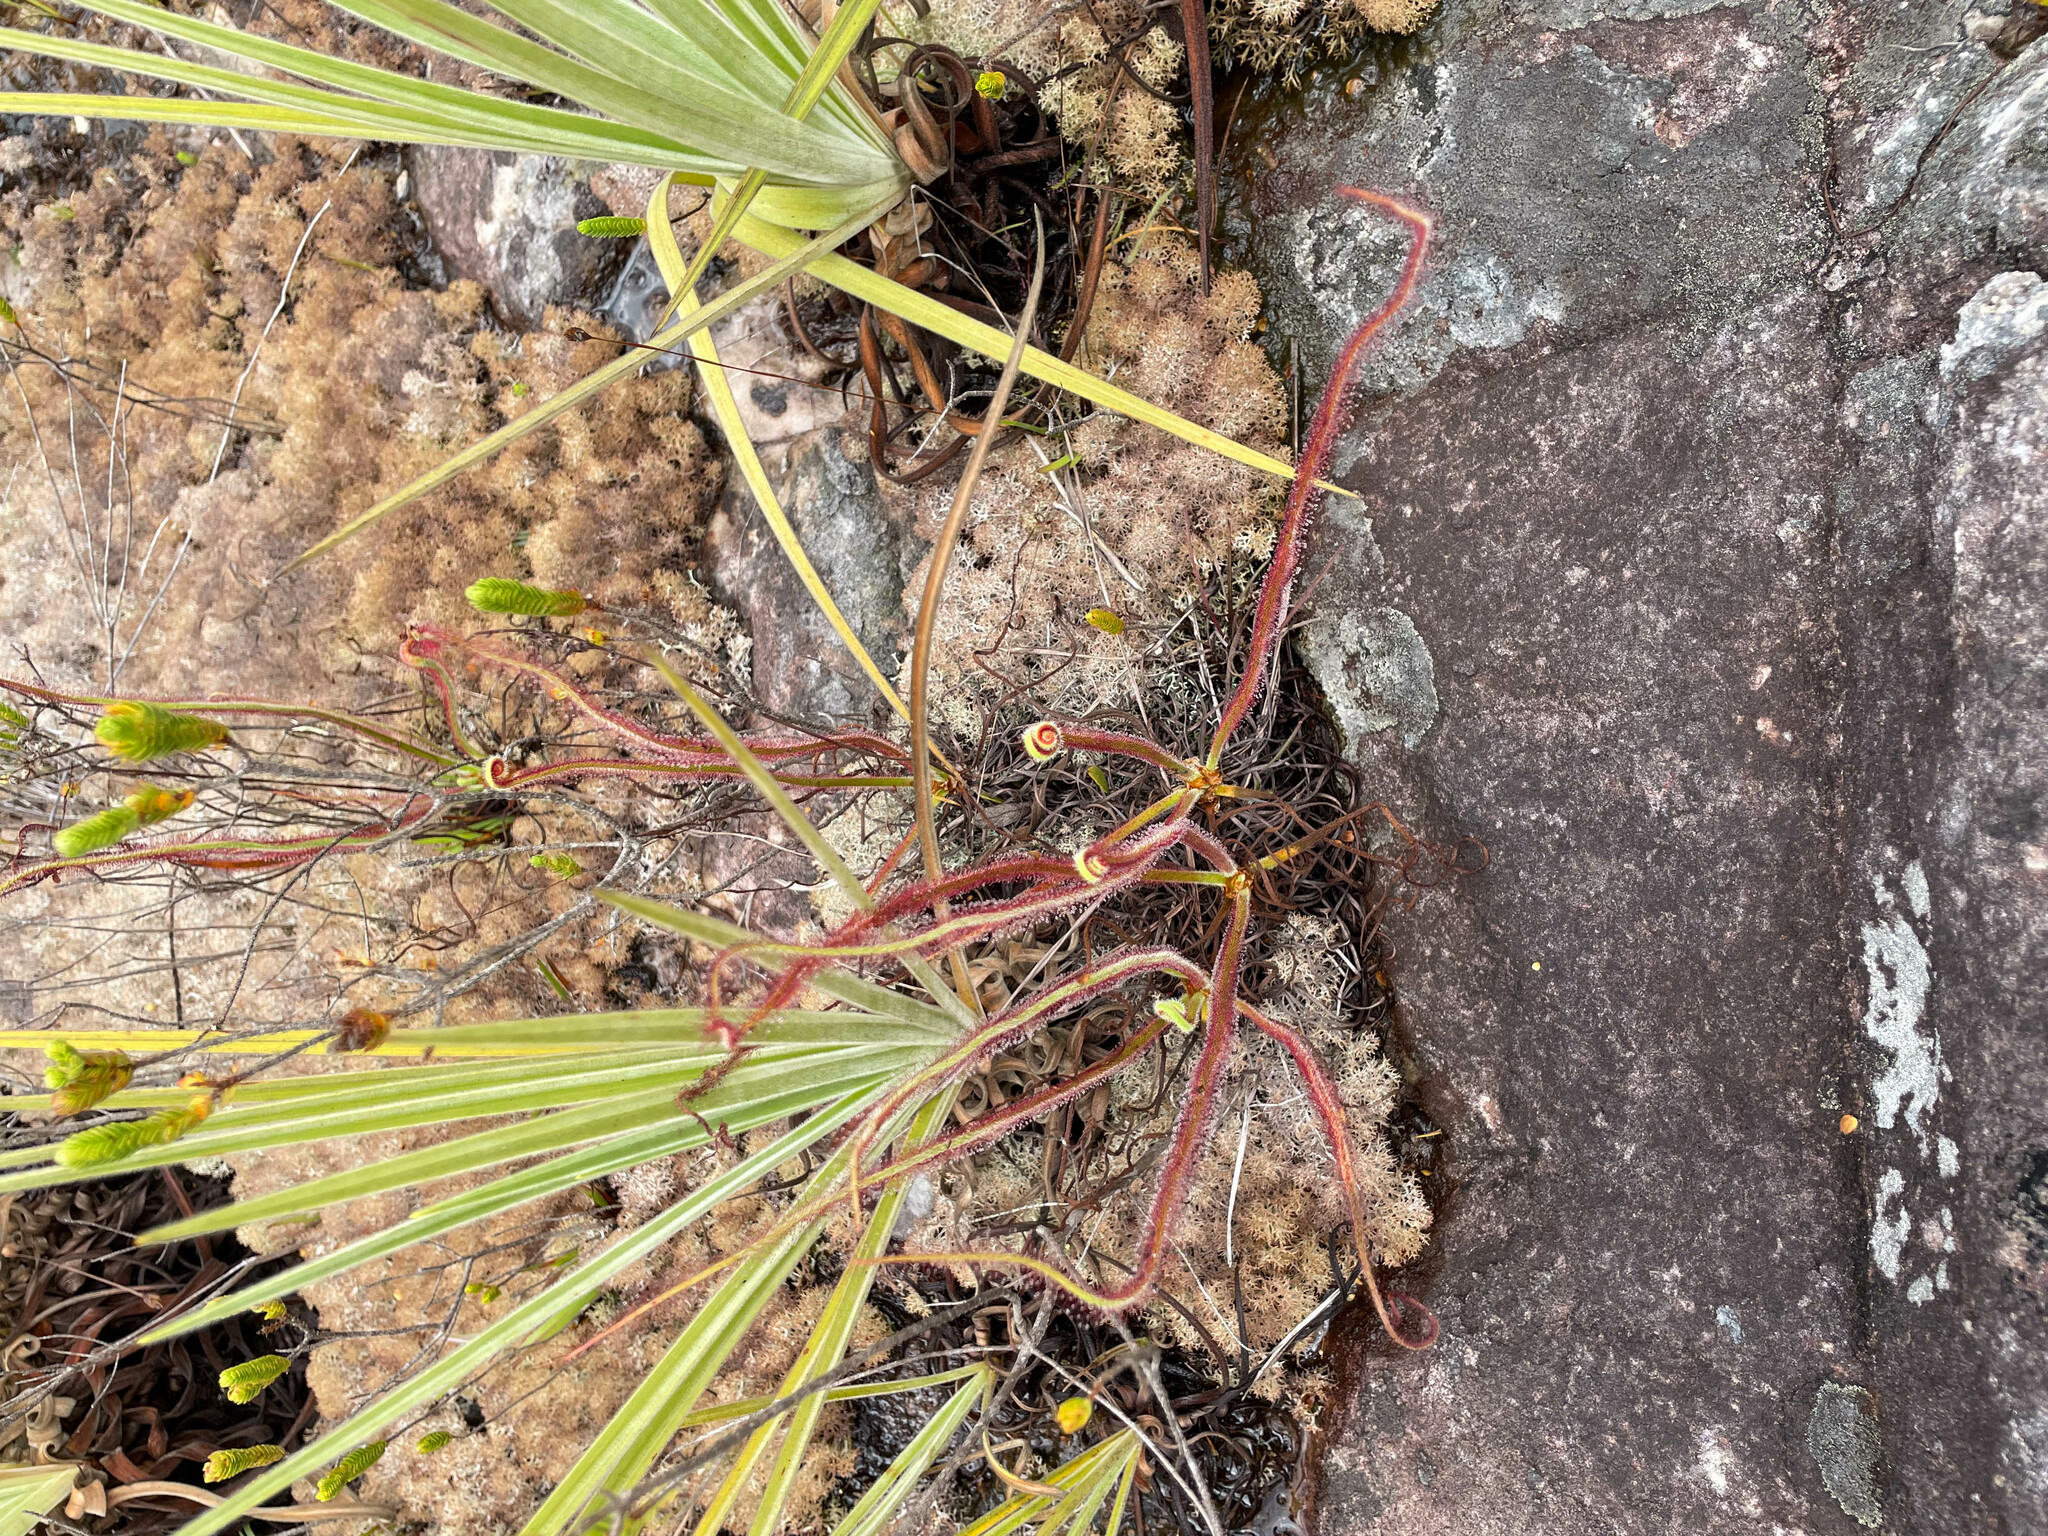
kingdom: Plantae
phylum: Tracheophyta
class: Magnoliopsida
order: Caryophyllales
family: Droseraceae
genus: Drosera
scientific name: Drosera graminifolia
